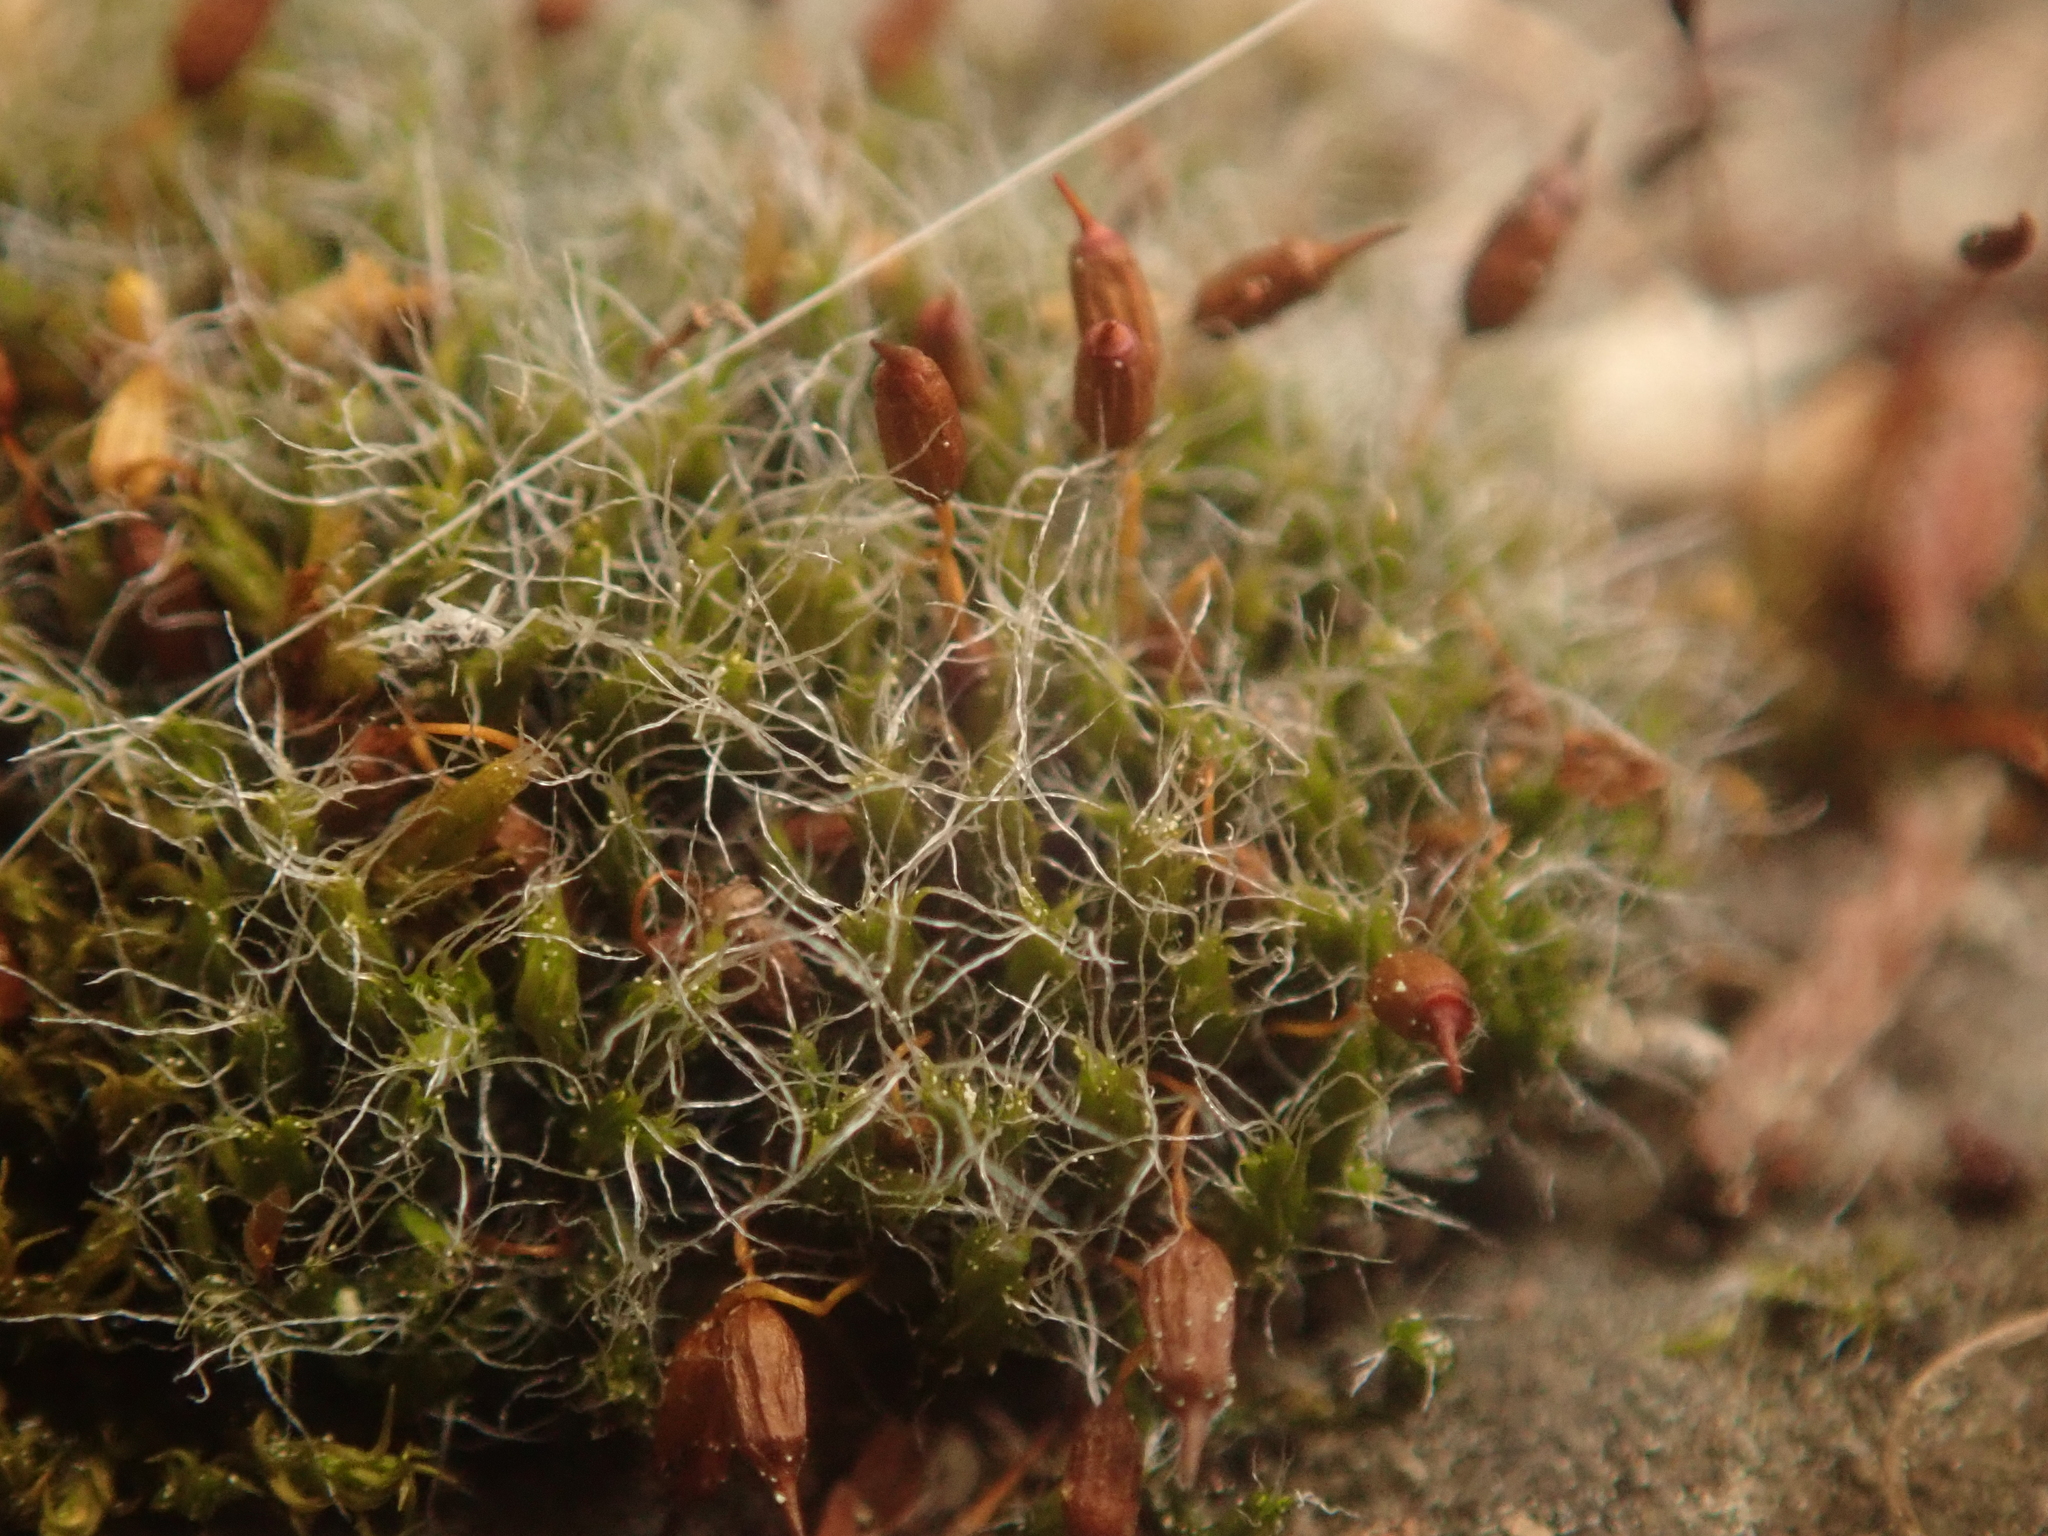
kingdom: Plantae
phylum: Bryophyta
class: Bryopsida
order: Grimmiales
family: Grimmiaceae
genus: Grimmia
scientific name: Grimmia pulvinata
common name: Grey-cushioned grimmia
